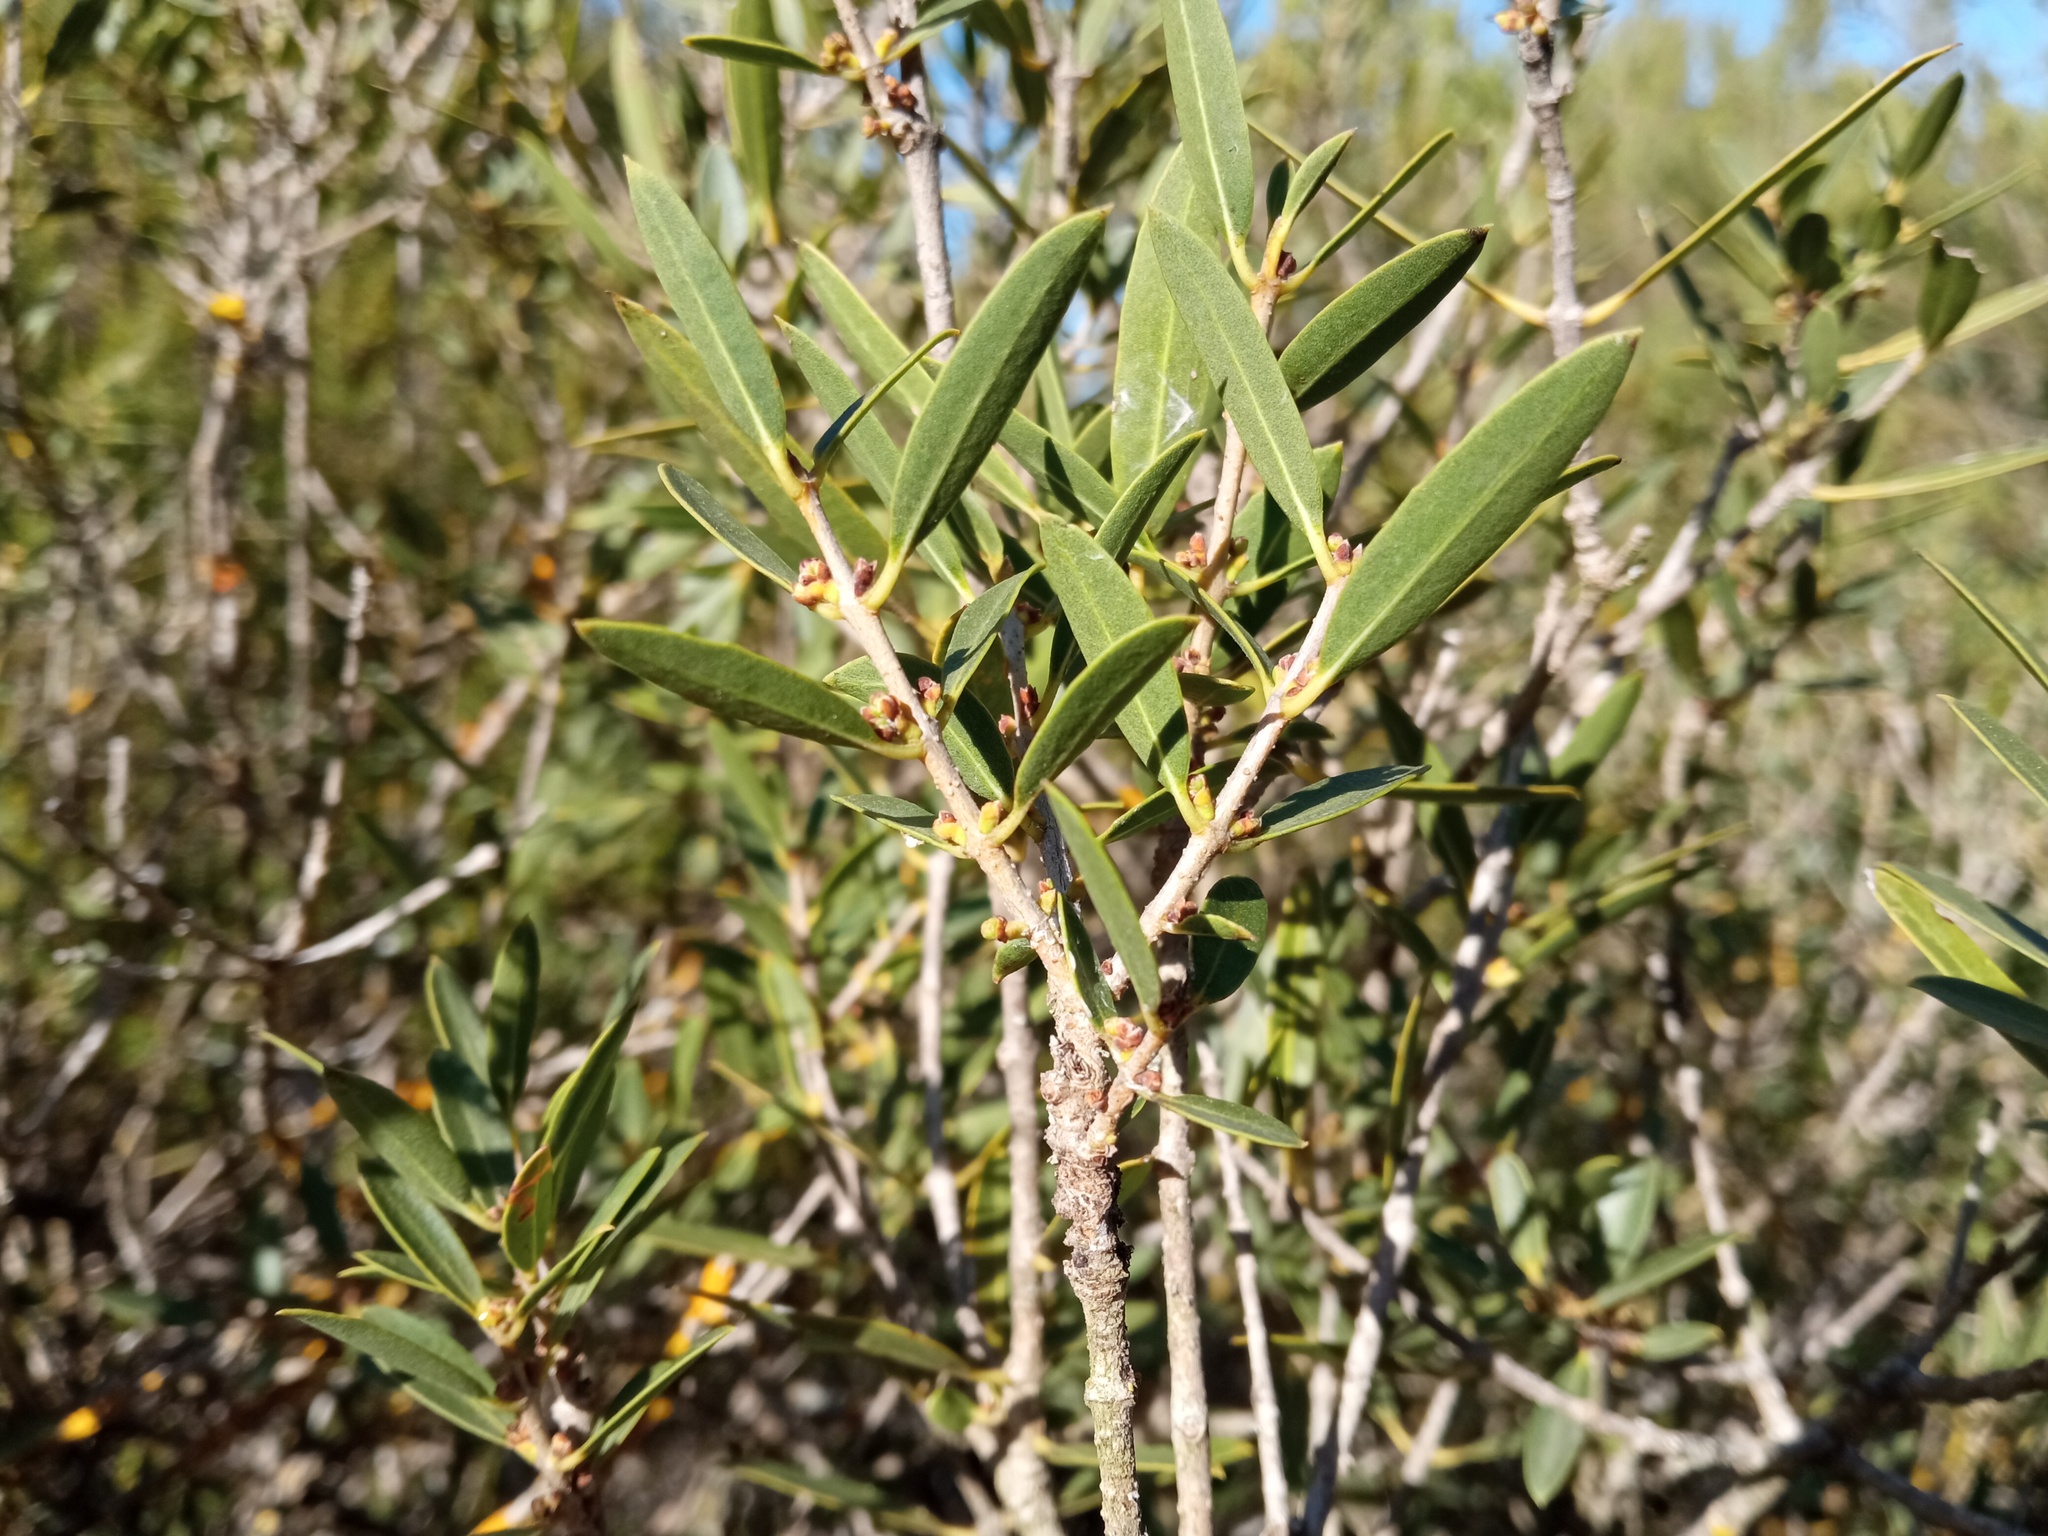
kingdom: Plantae
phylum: Tracheophyta
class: Magnoliopsida
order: Lamiales
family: Oleaceae
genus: Phillyrea
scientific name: Phillyrea angustifolia
